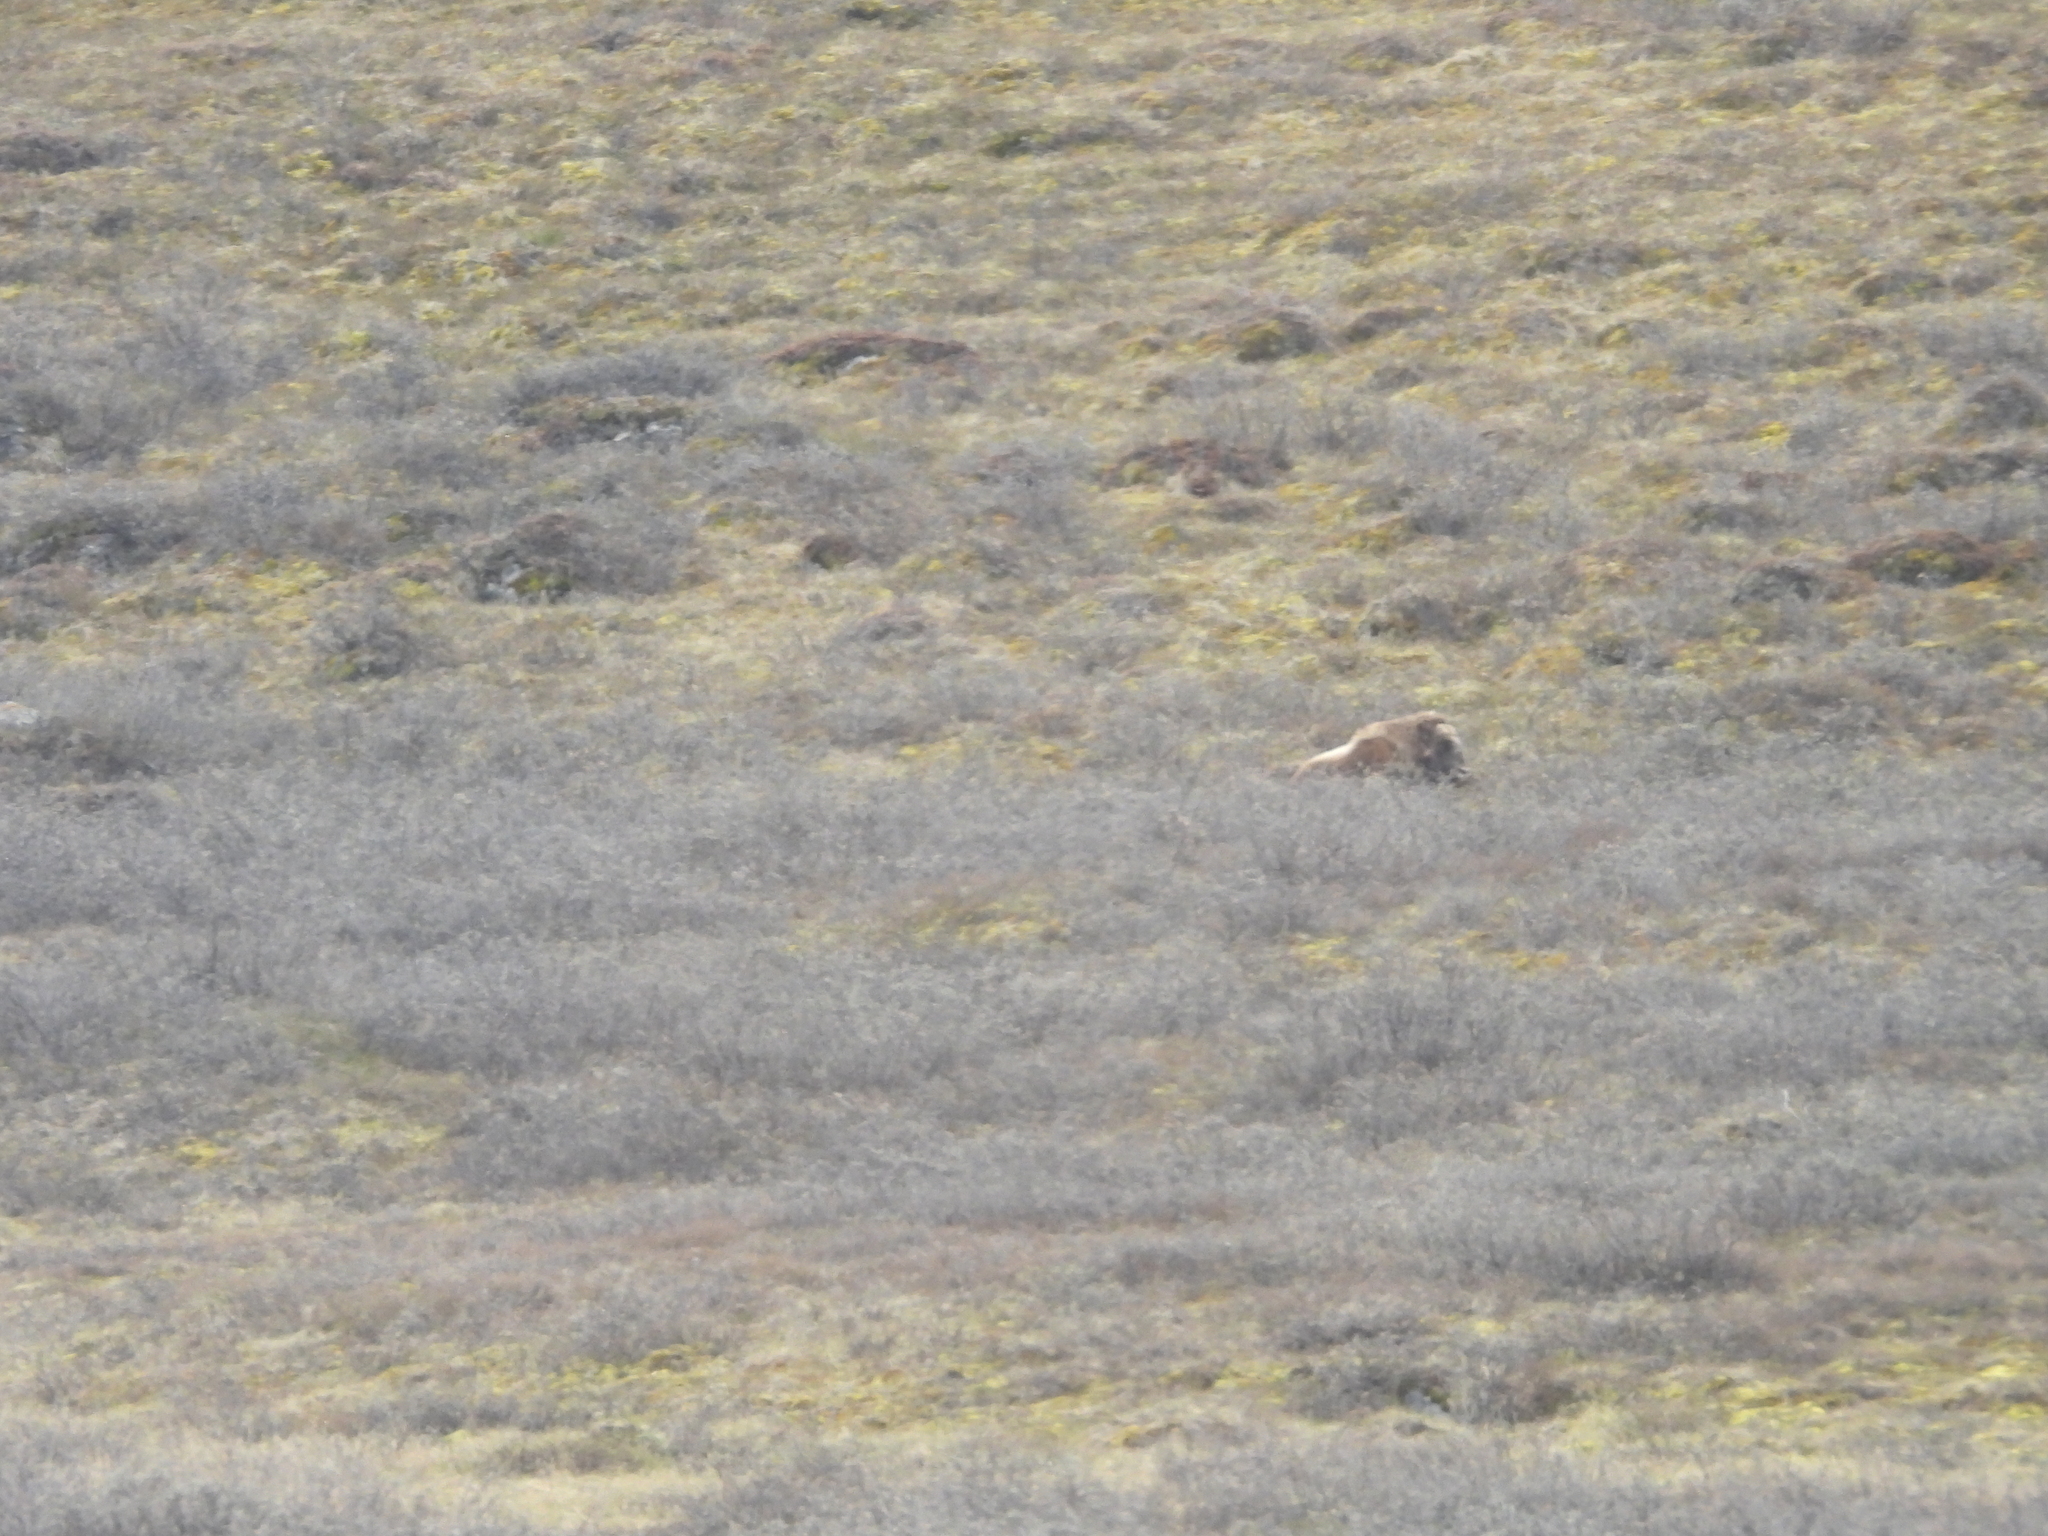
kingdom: Animalia
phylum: Chordata
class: Mammalia
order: Artiodactyla
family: Bovidae
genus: Ovibos
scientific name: Ovibos moschatus
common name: Muskox
